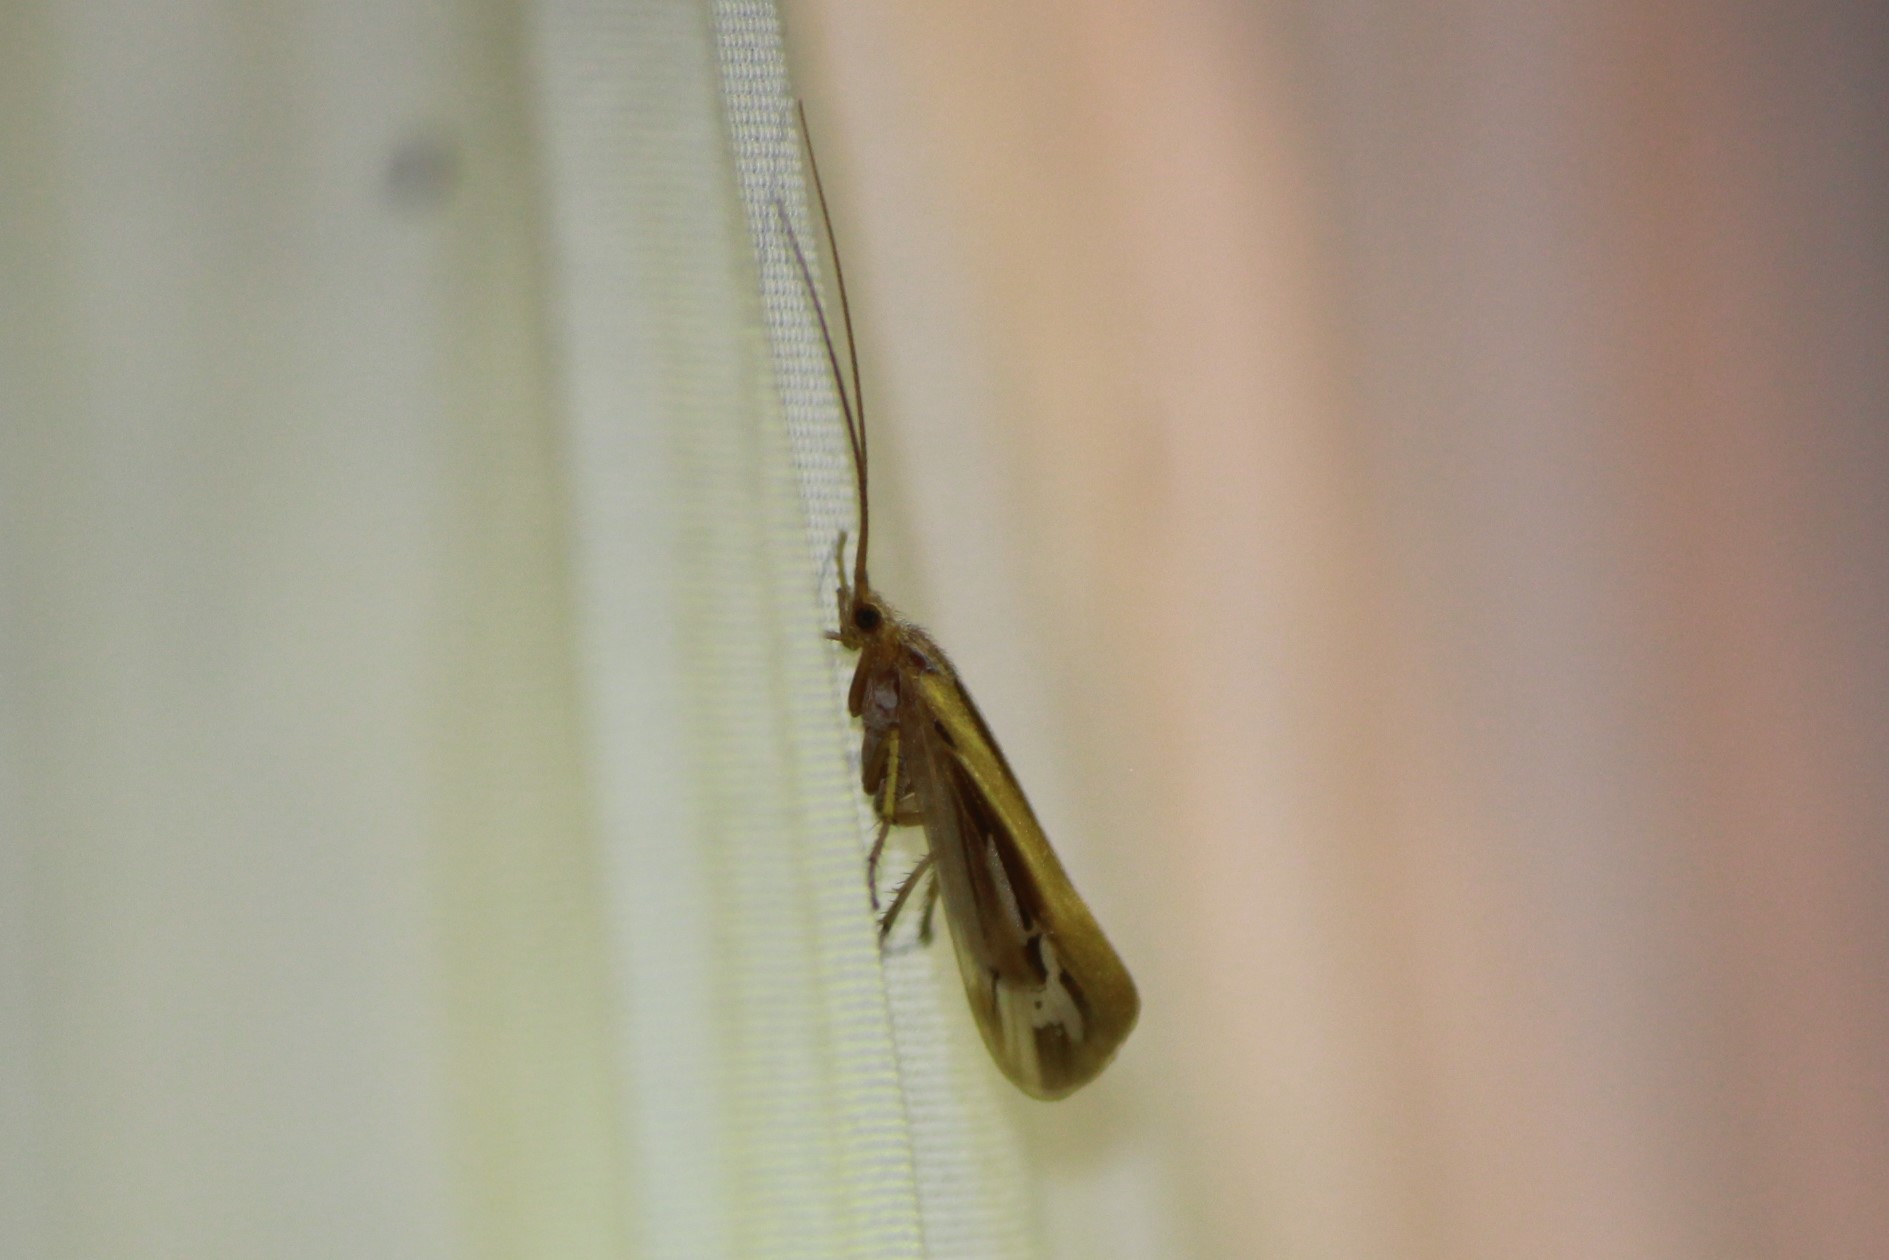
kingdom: Animalia
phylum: Arthropoda
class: Insecta
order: Trichoptera
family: Limnephilidae
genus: Limnephilus
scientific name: Limnephilus ornatus
